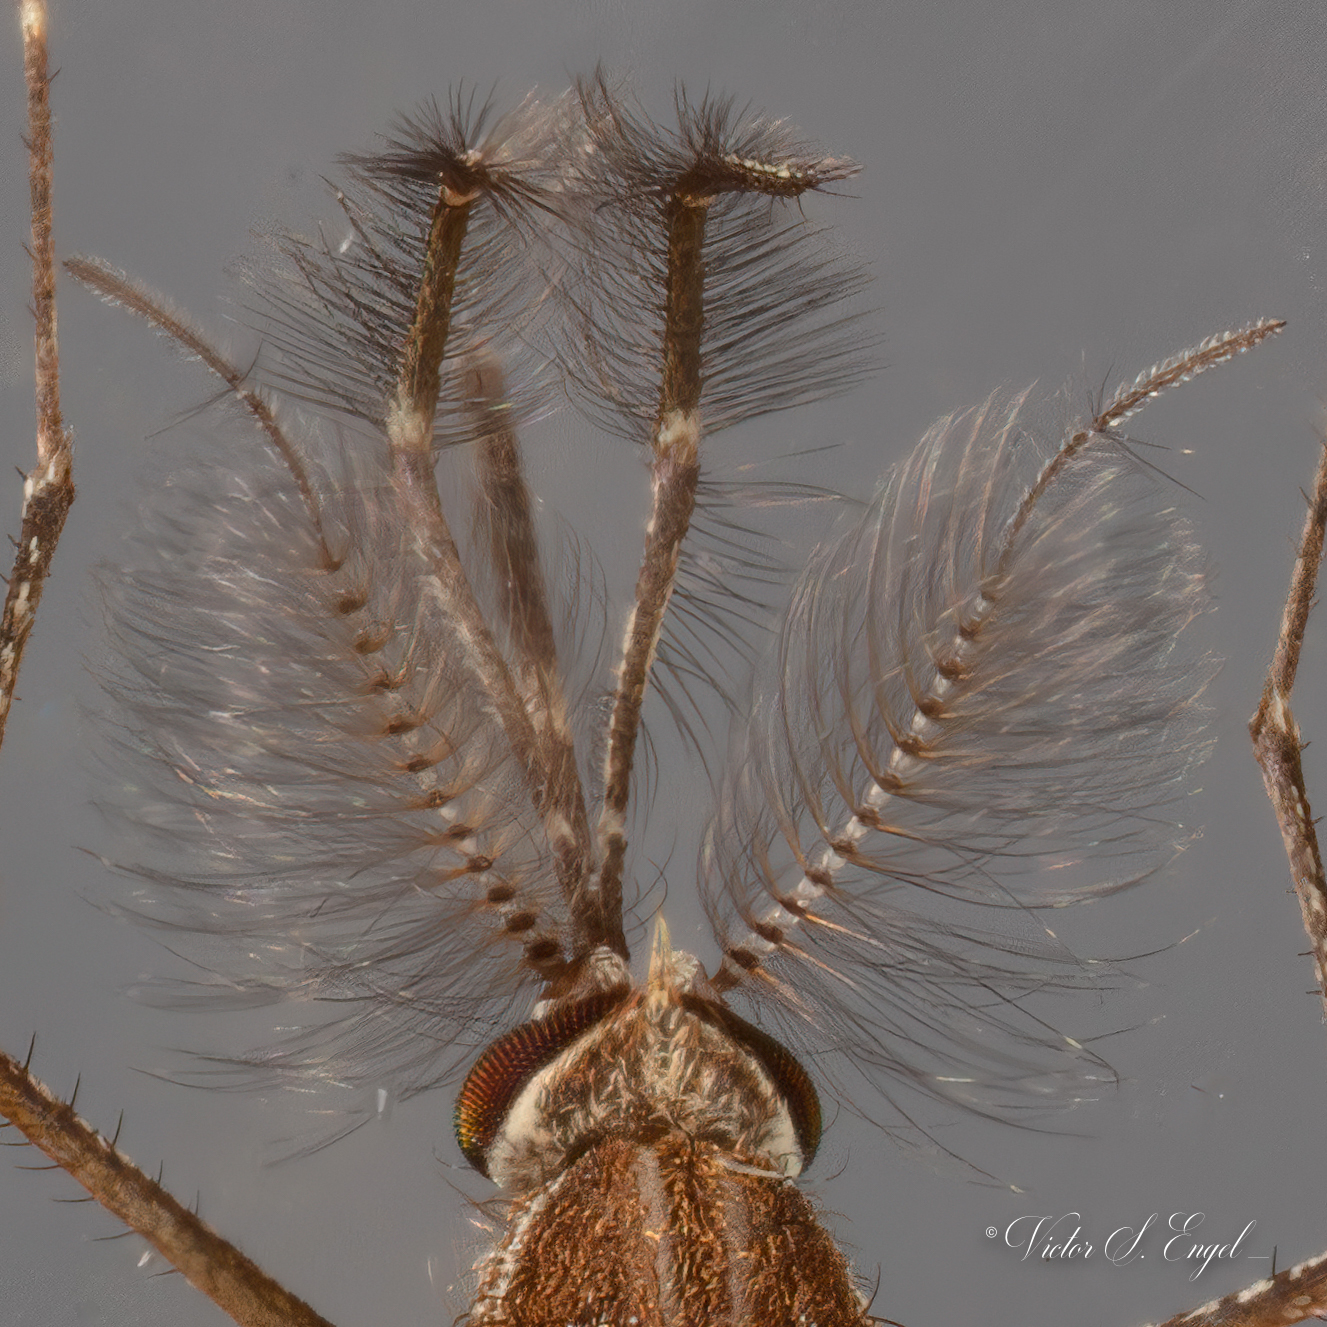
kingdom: Animalia
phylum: Arthropoda
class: Insecta
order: Diptera
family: Culicidae
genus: Culex
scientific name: Culex tarsalis
